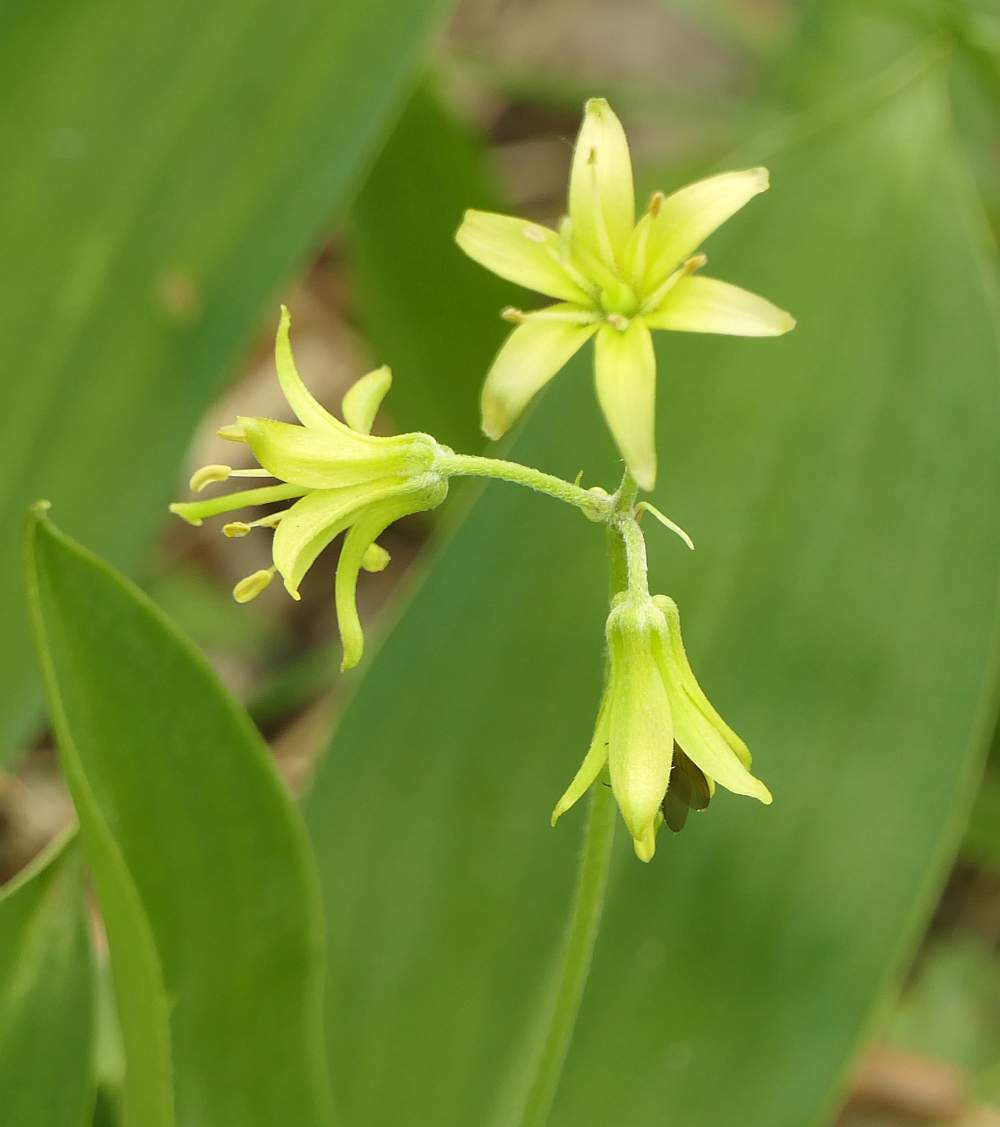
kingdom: Plantae
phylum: Tracheophyta
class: Liliopsida
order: Liliales
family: Liliaceae
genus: Clintonia
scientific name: Clintonia borealis
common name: Yellow clintonia
